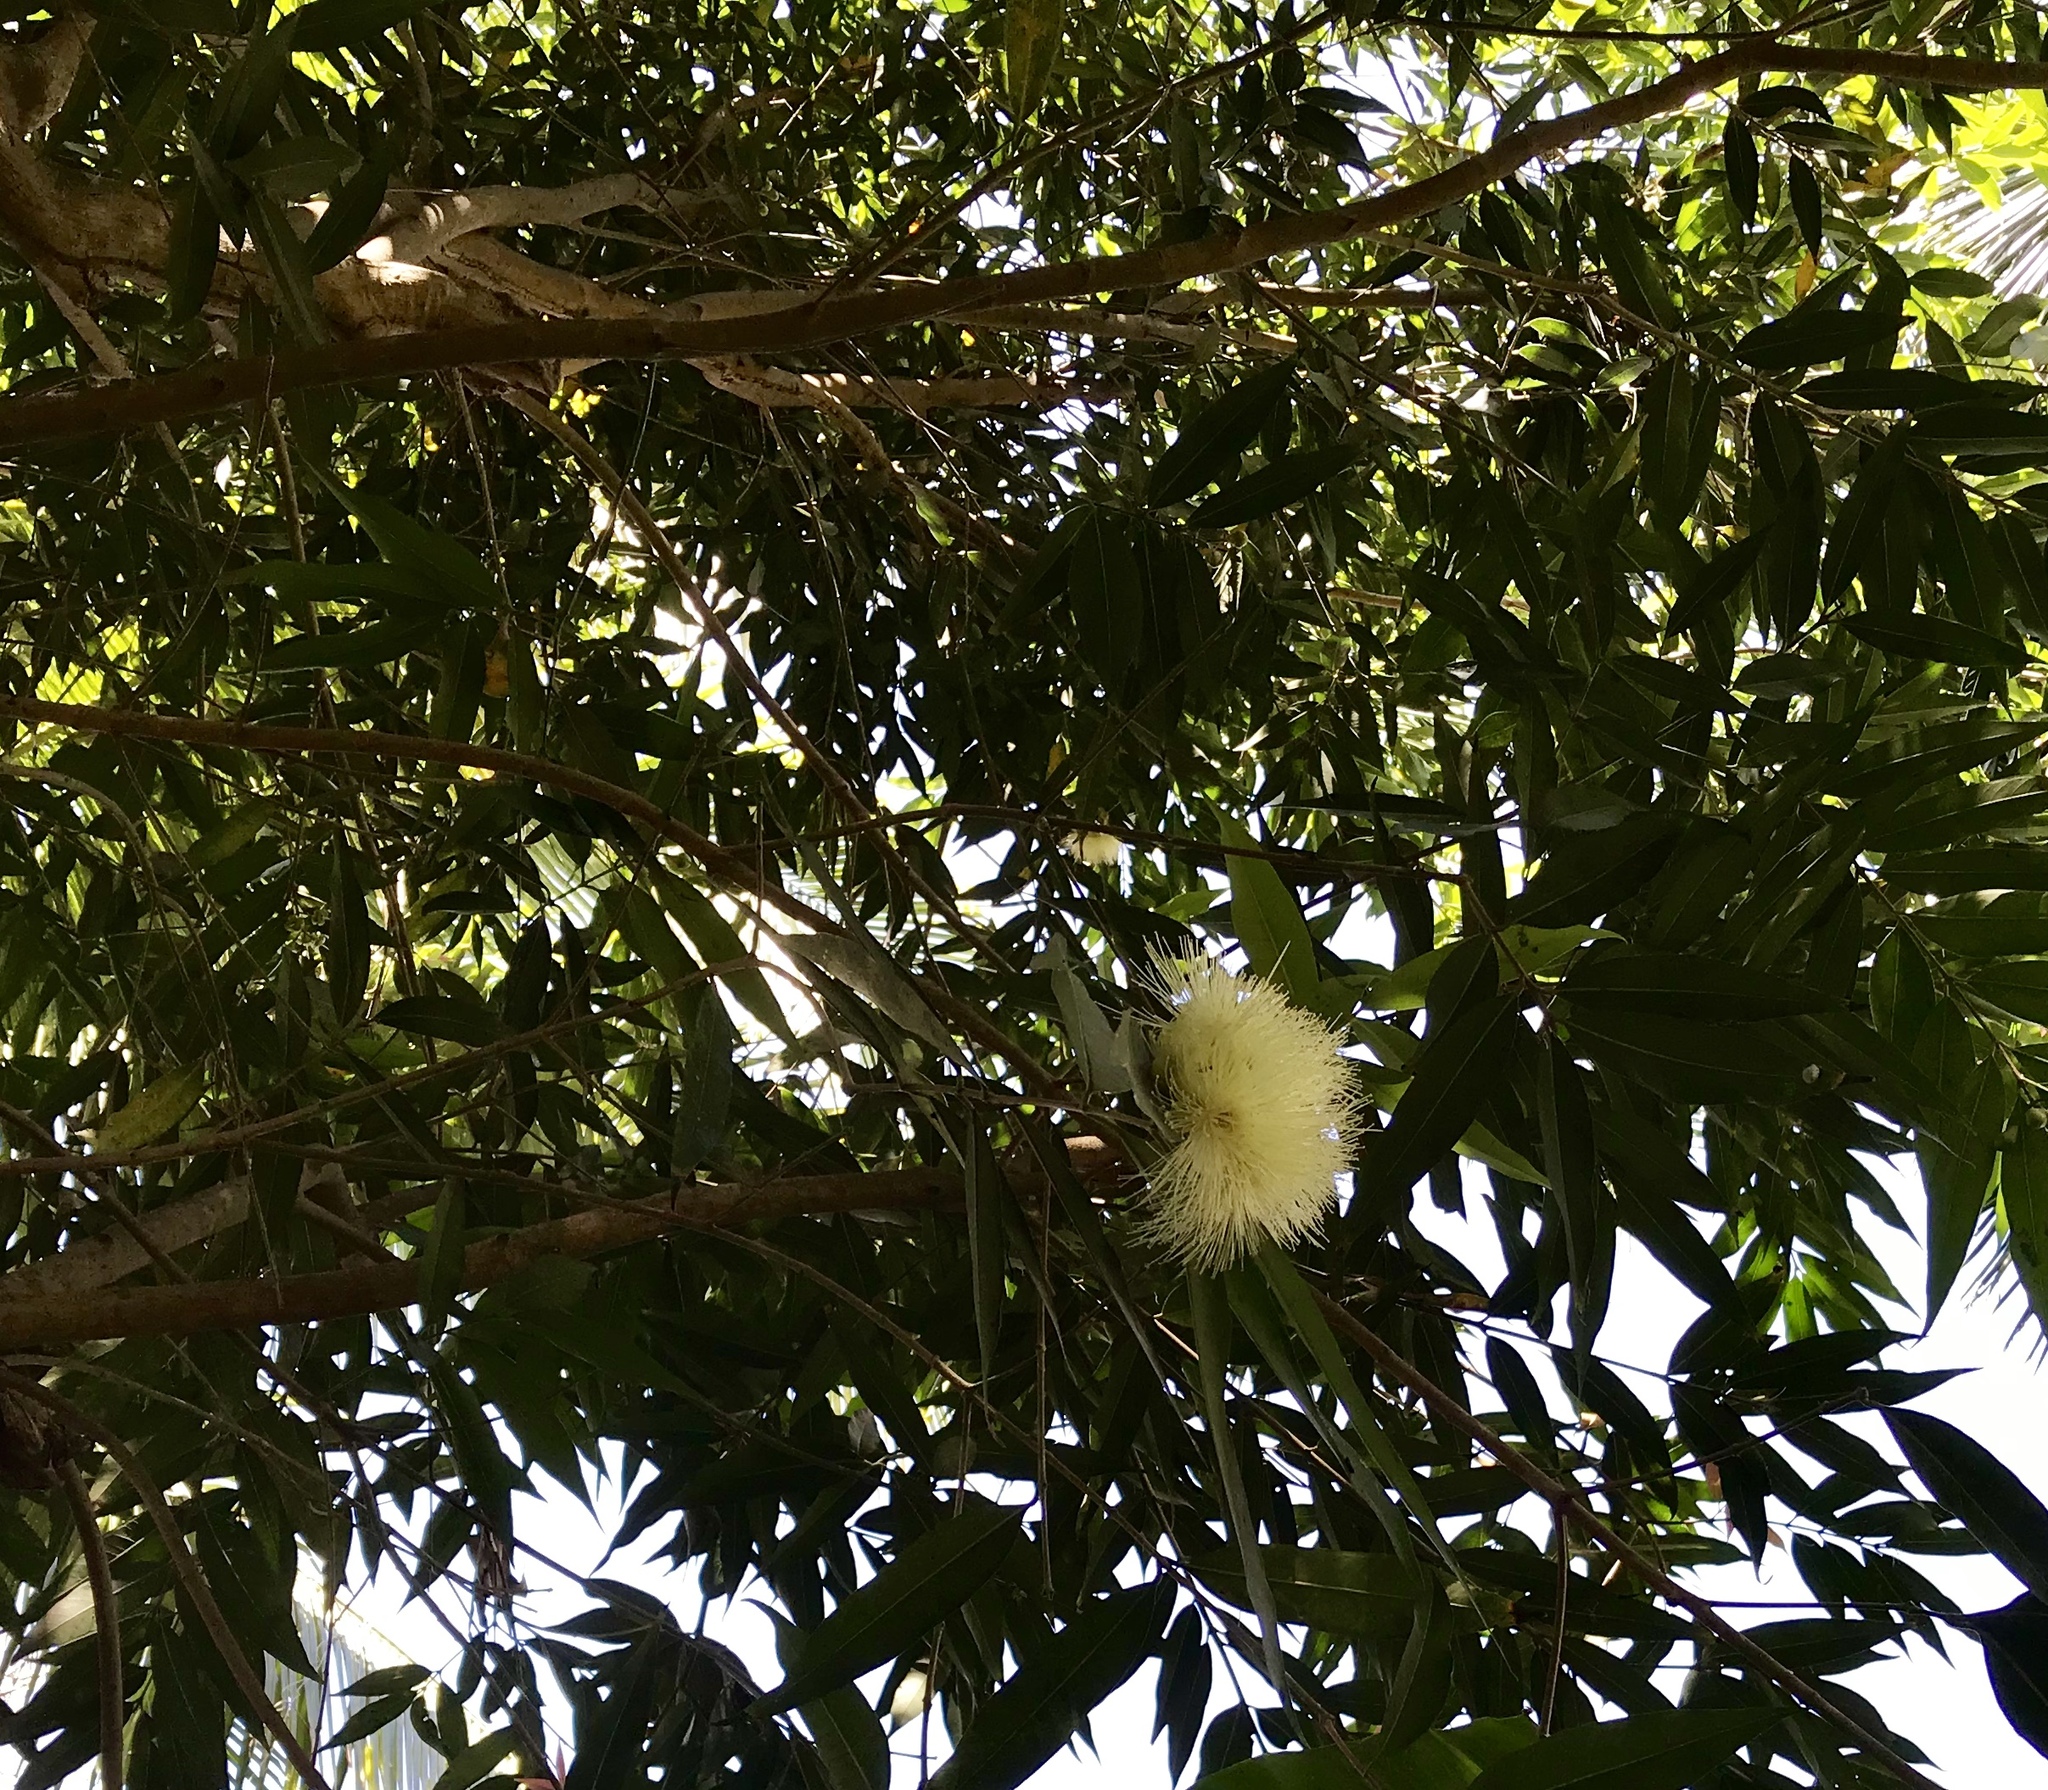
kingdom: Plantae
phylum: Tracheophyta
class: Magnoliopsida
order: Myrtales
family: Myrtaceae
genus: Syzygium
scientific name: Syzygium jambos
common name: Malabar plum
